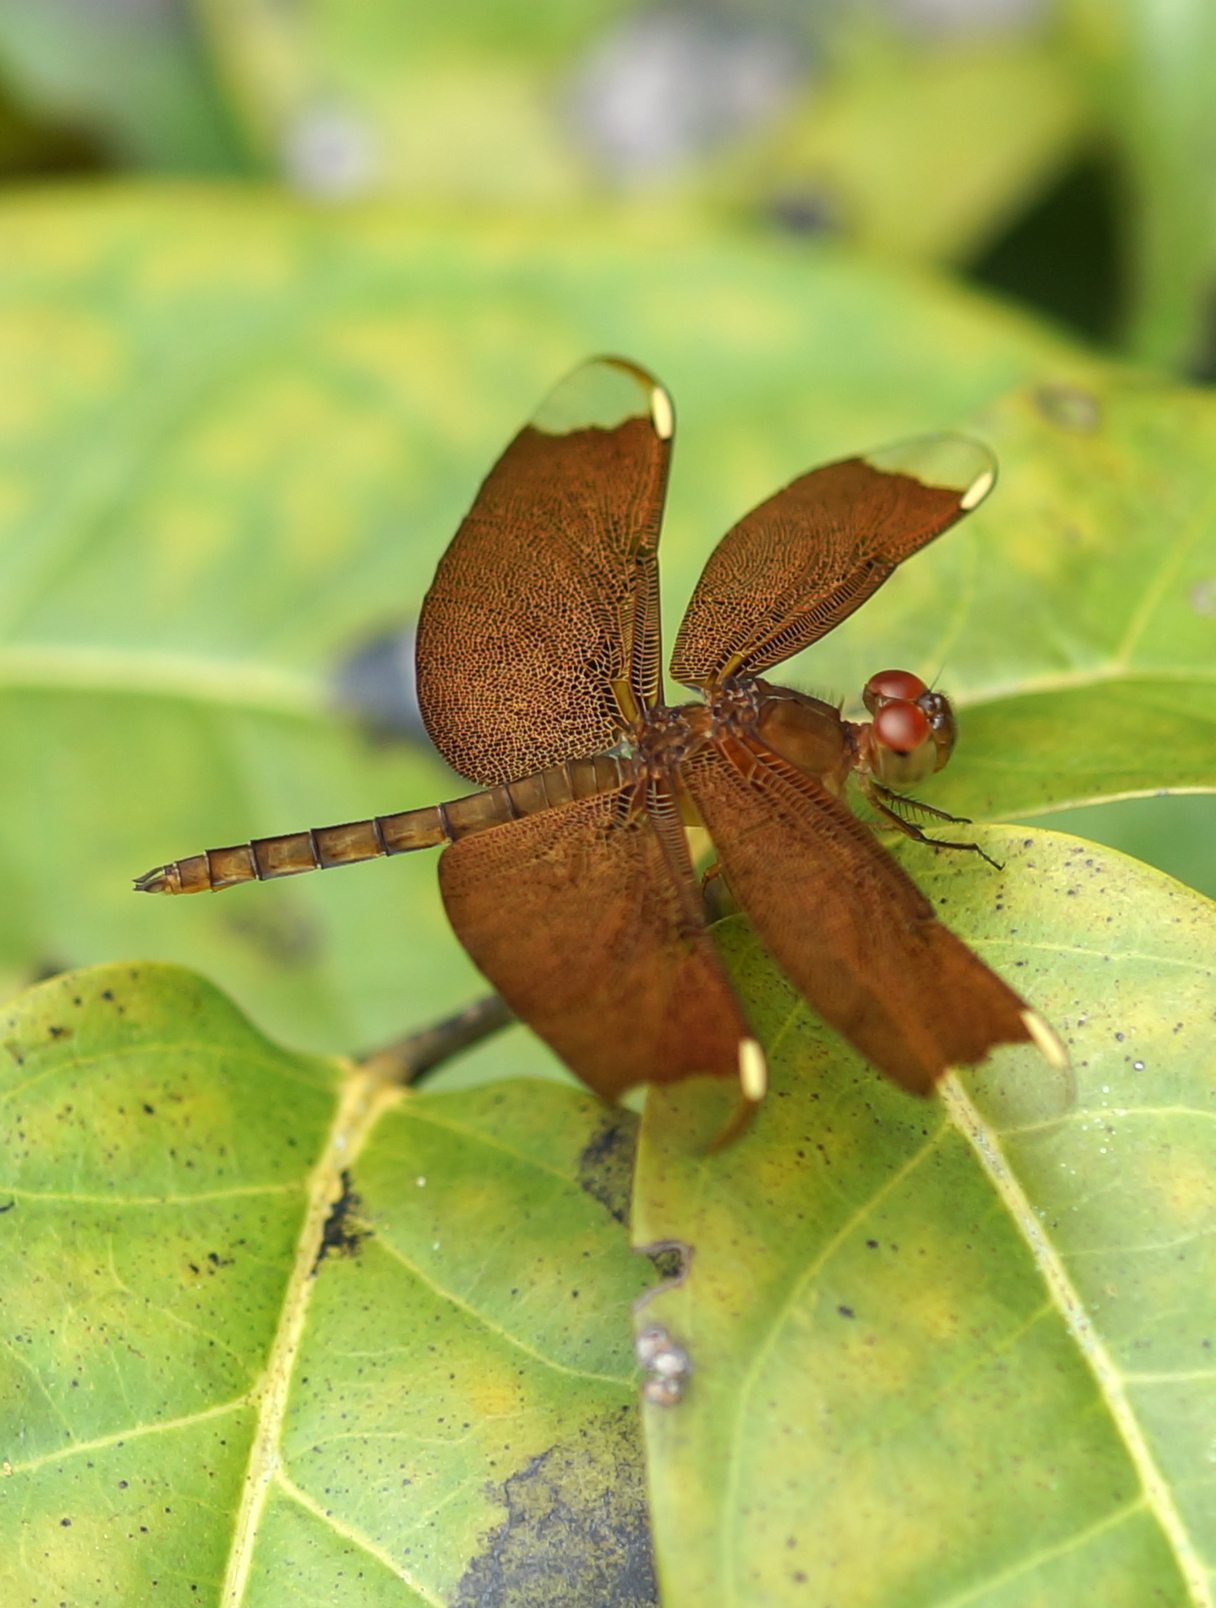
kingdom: Animalia
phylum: Arthropoda
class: Insecta
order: Odonata
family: Libellulidae
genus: Neurothemis
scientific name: Neurothemis fulvia
